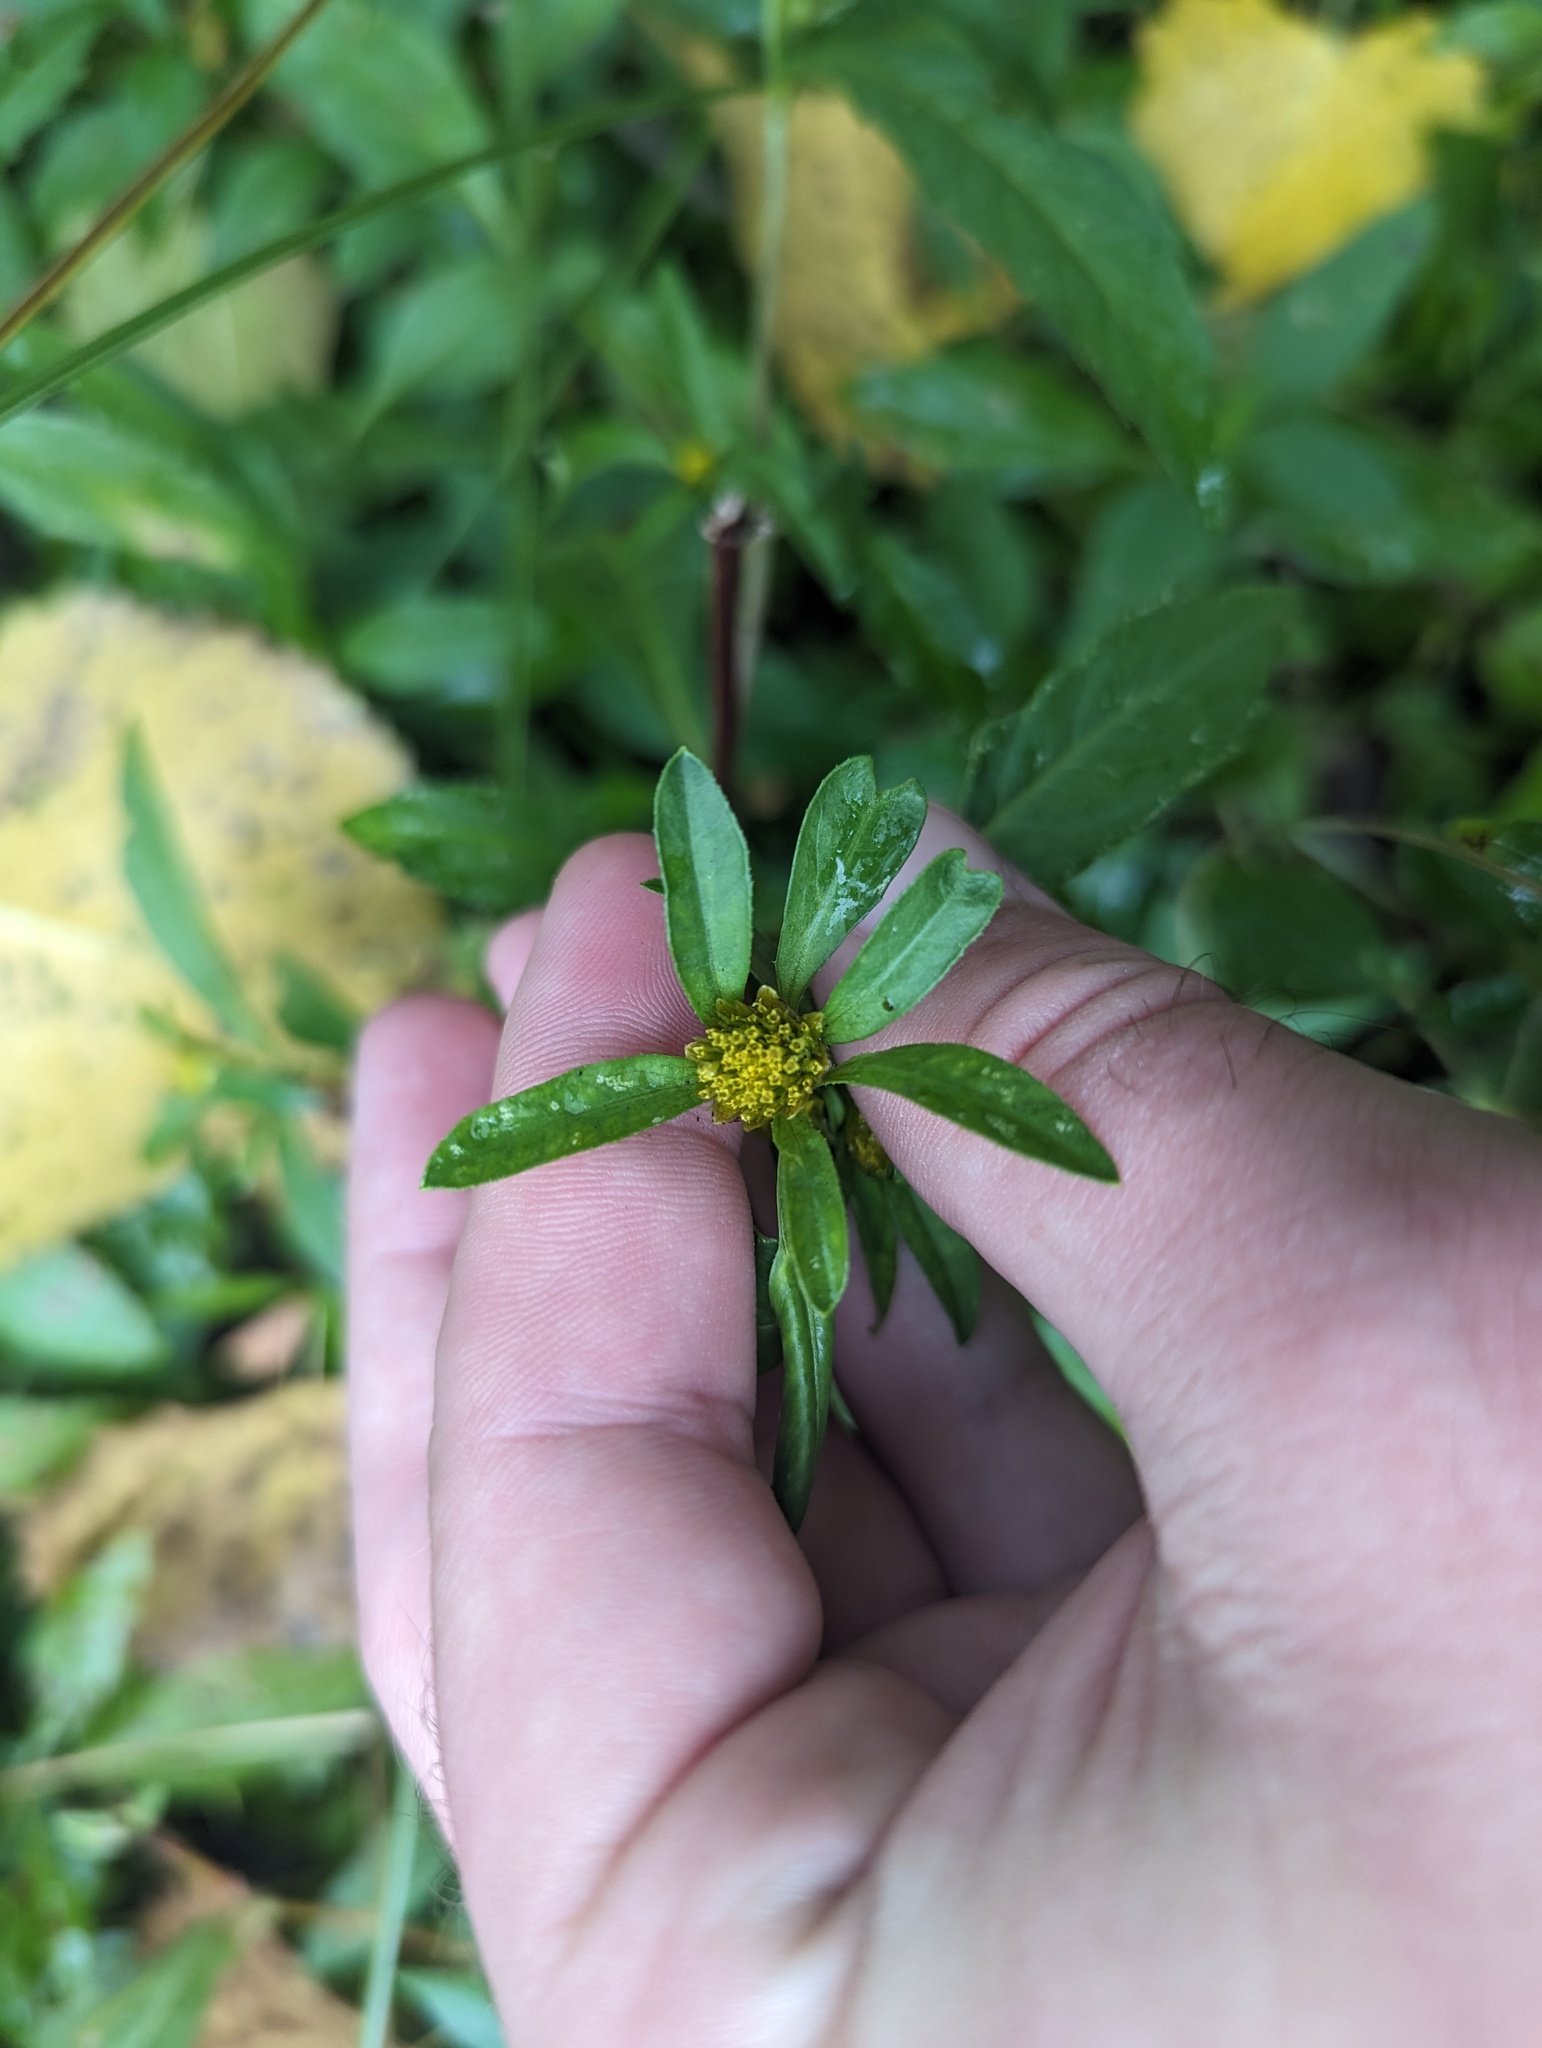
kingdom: Plantae
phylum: Tracheophyta
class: Magnoliopsida
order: Asterales
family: Asteraceae
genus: Bidens
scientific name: Bidens connata
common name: London bur-marigold
